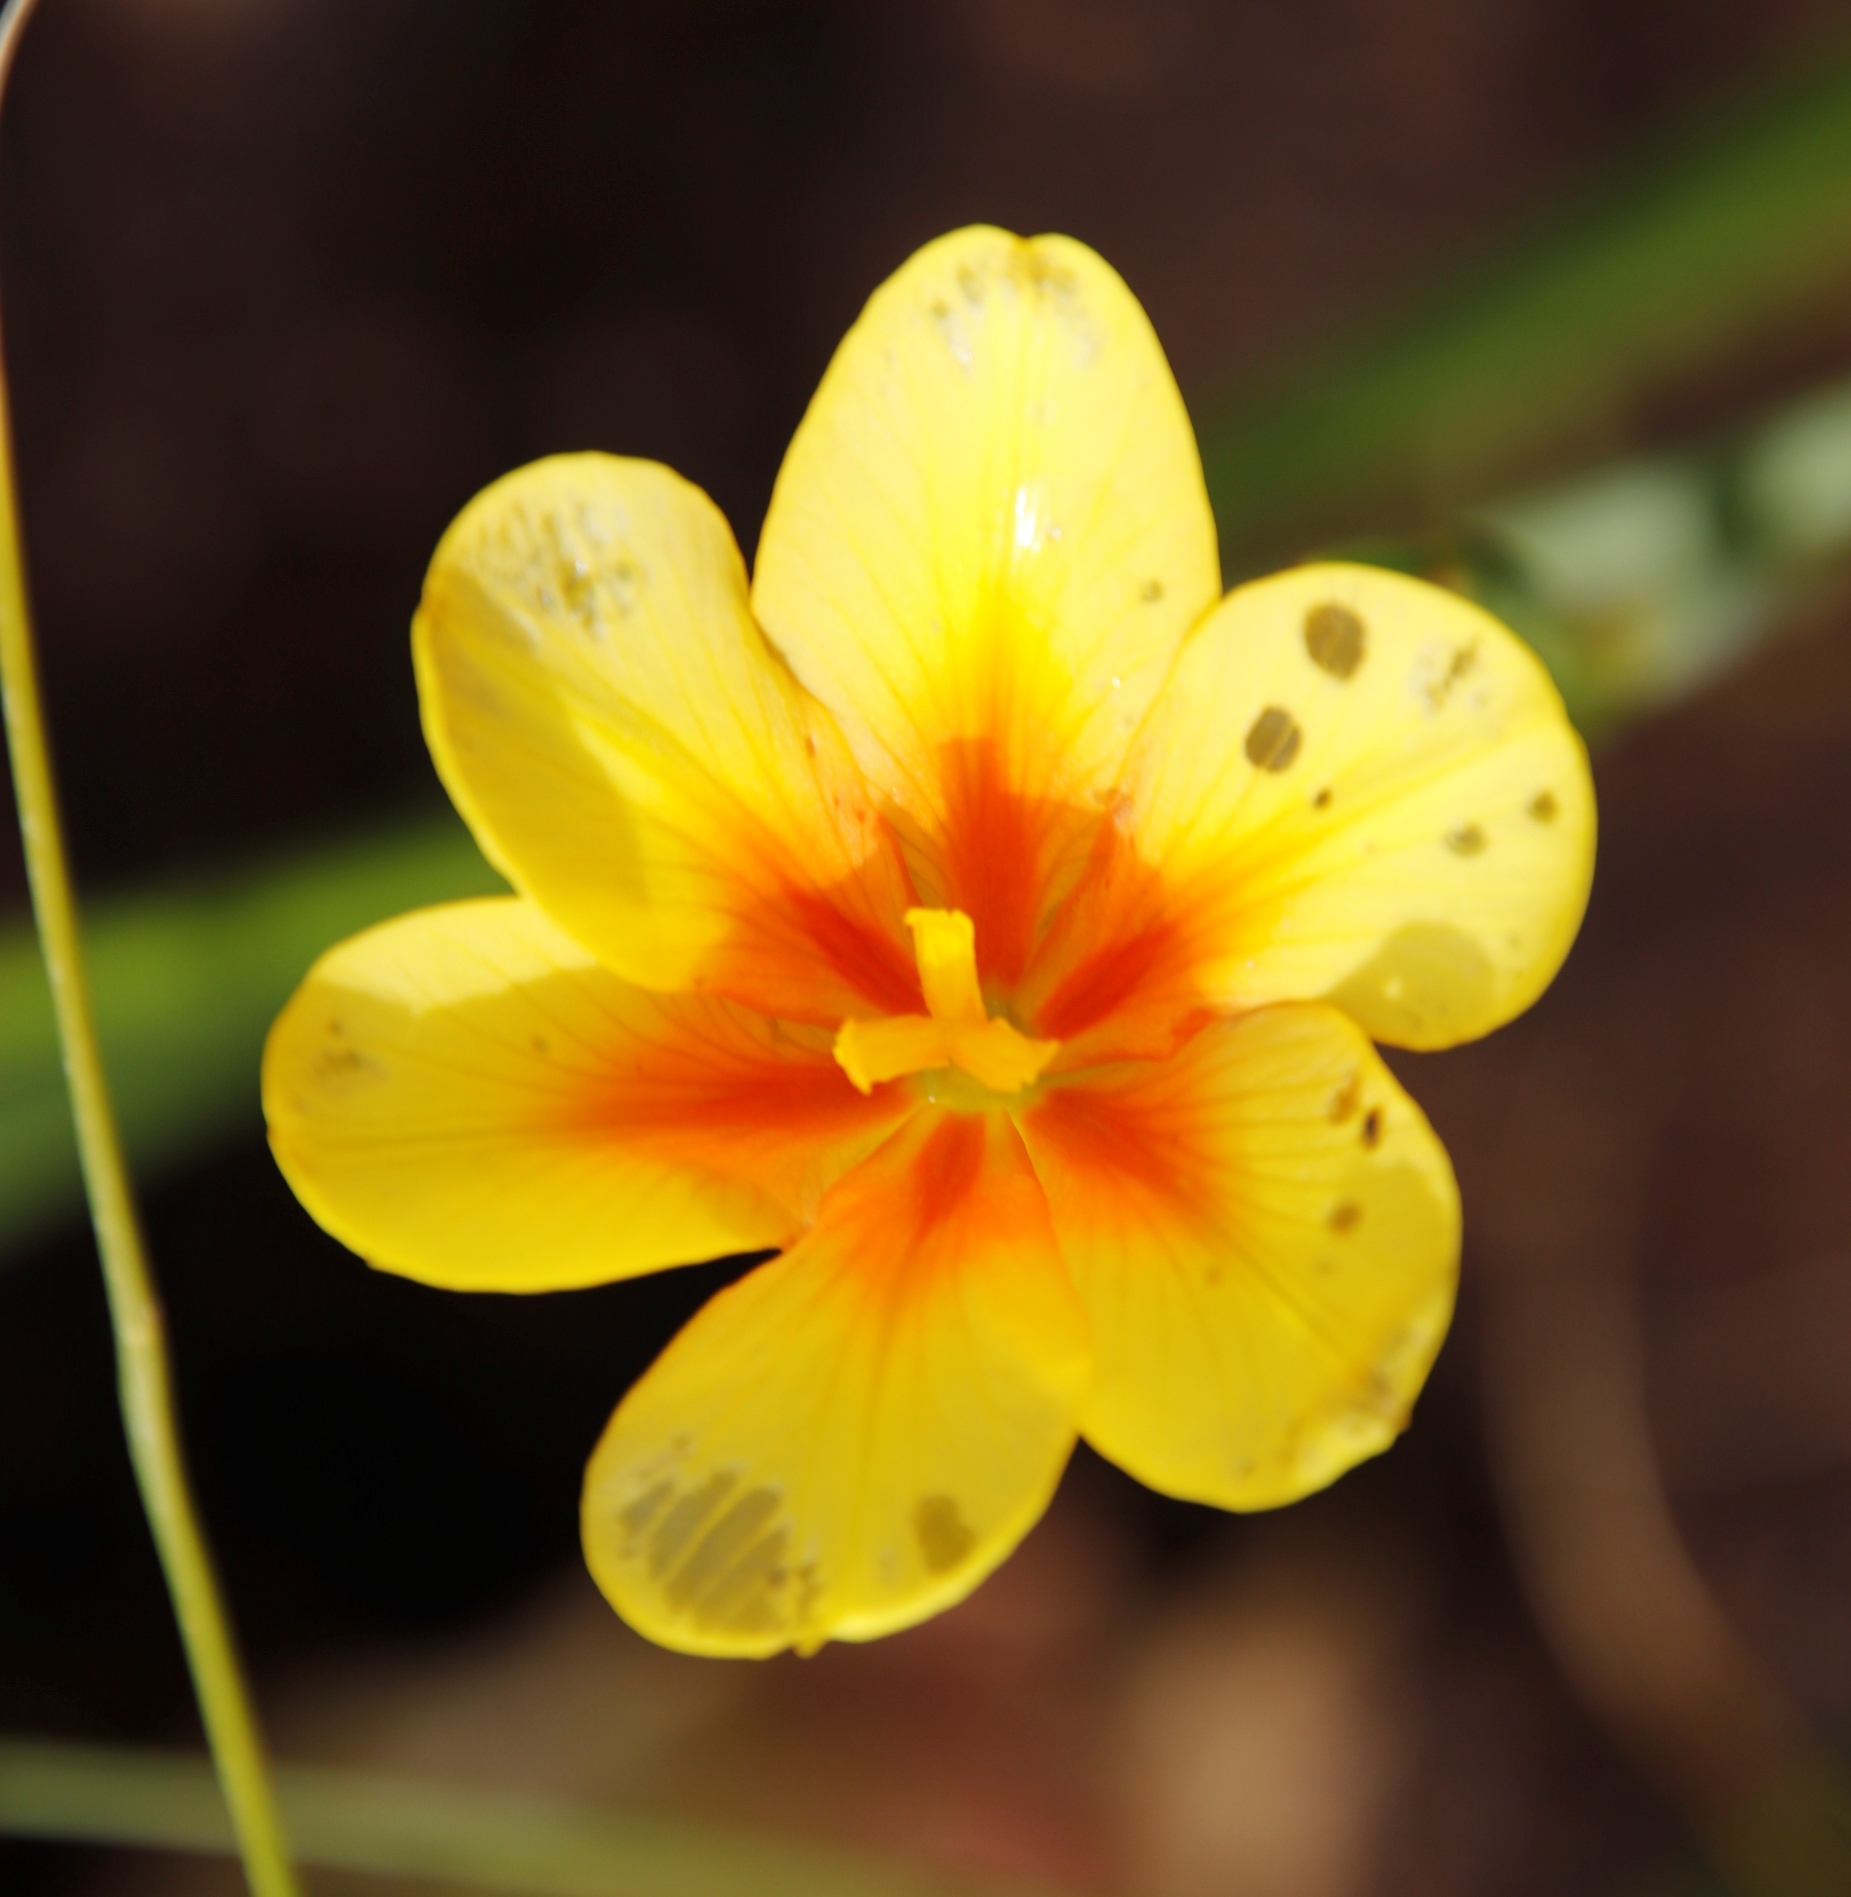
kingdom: Plantae
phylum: Tracheophyta
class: Liliopsida
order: Asparagales
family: Iridaceae
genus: Moraea
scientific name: Moraea ochroleuca
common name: Red tulp
